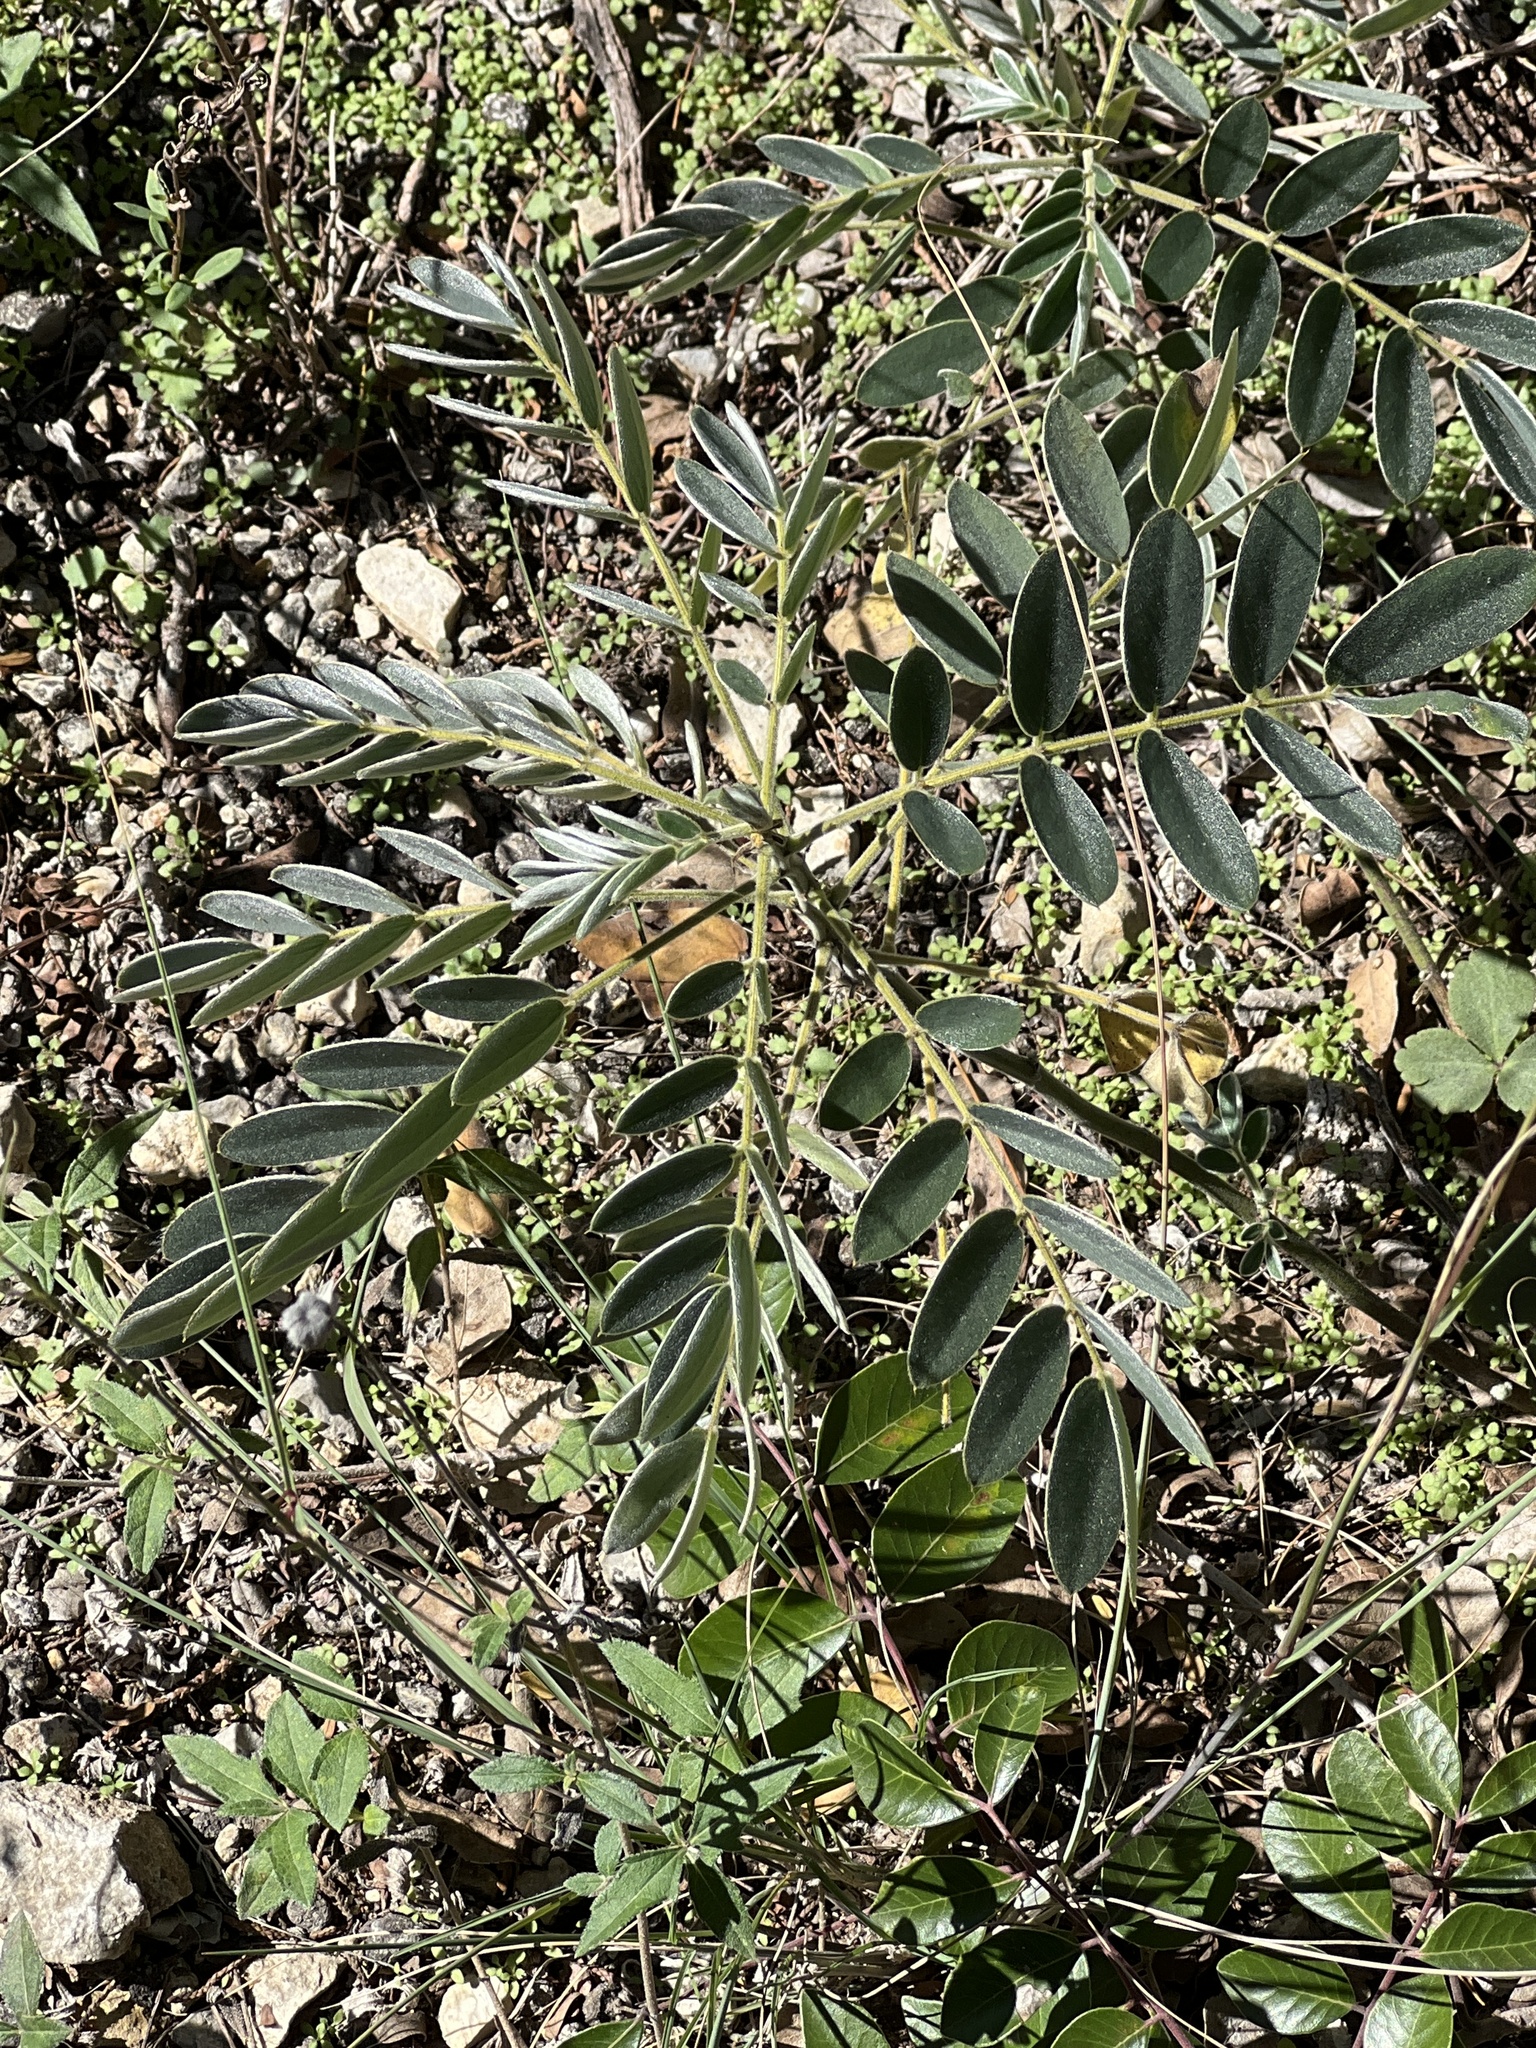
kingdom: Plantae
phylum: Tracheophyta
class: Magnoliopsida
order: Fabales
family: Fabaceae
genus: Senna
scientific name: Senna lindheimeriana
